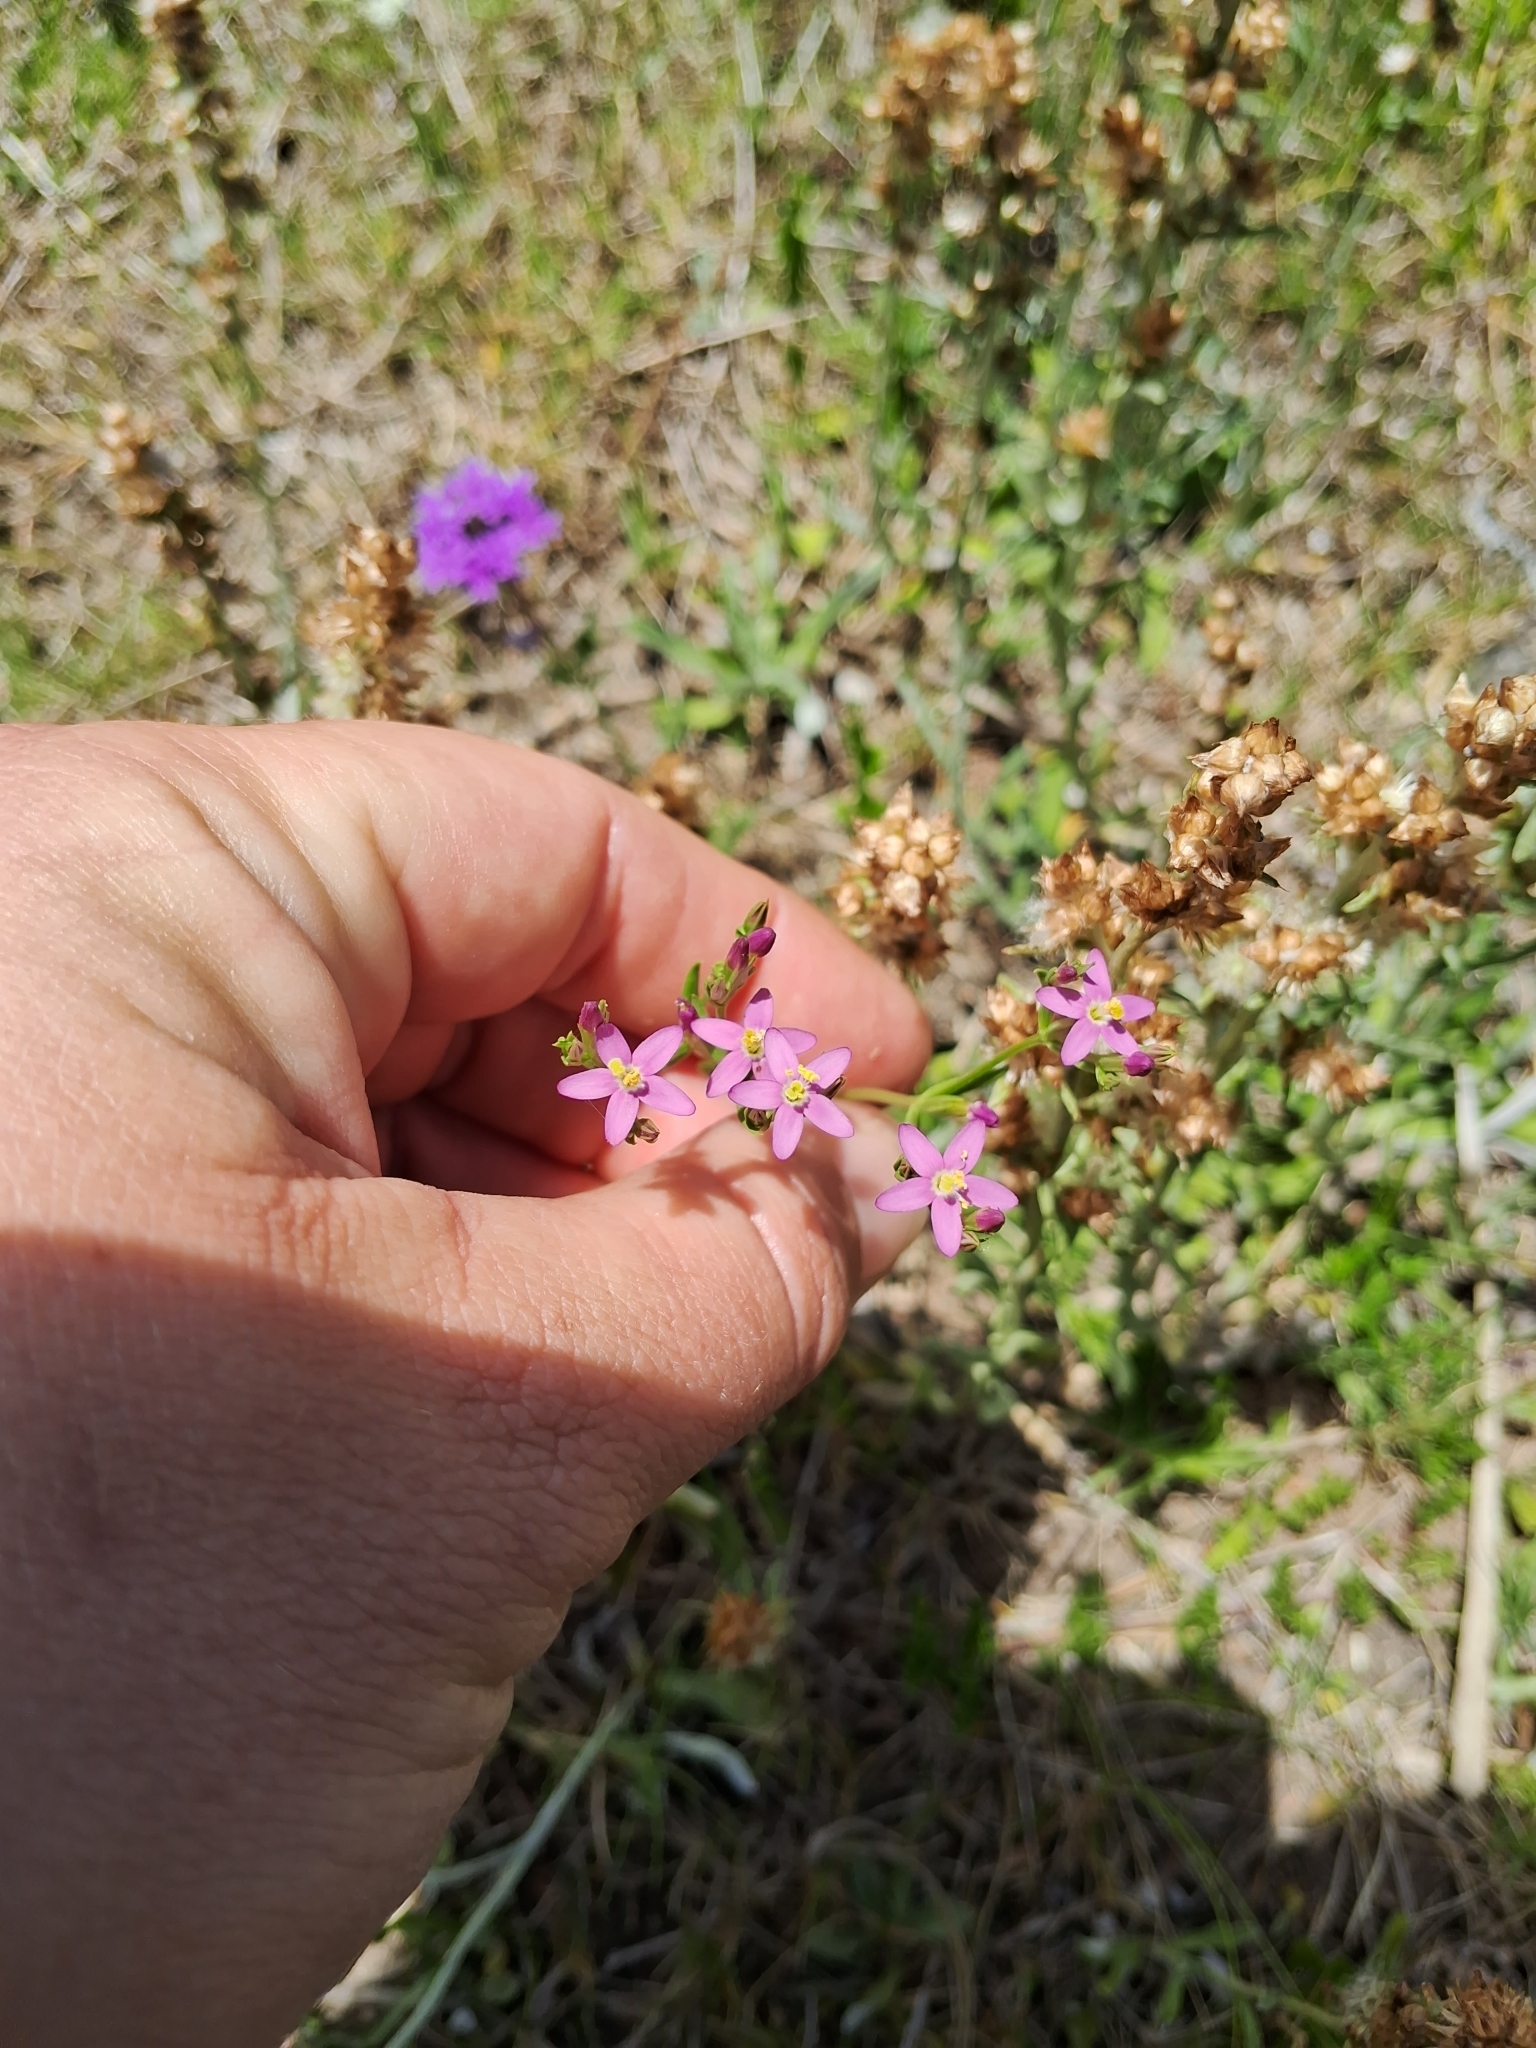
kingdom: Plantae
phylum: Tracheophyta
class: Magnoliopsida
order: Gentianales
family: Gentianaceae
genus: Centaurium
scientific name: Centaurium pulchellum
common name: Lesser centaury
